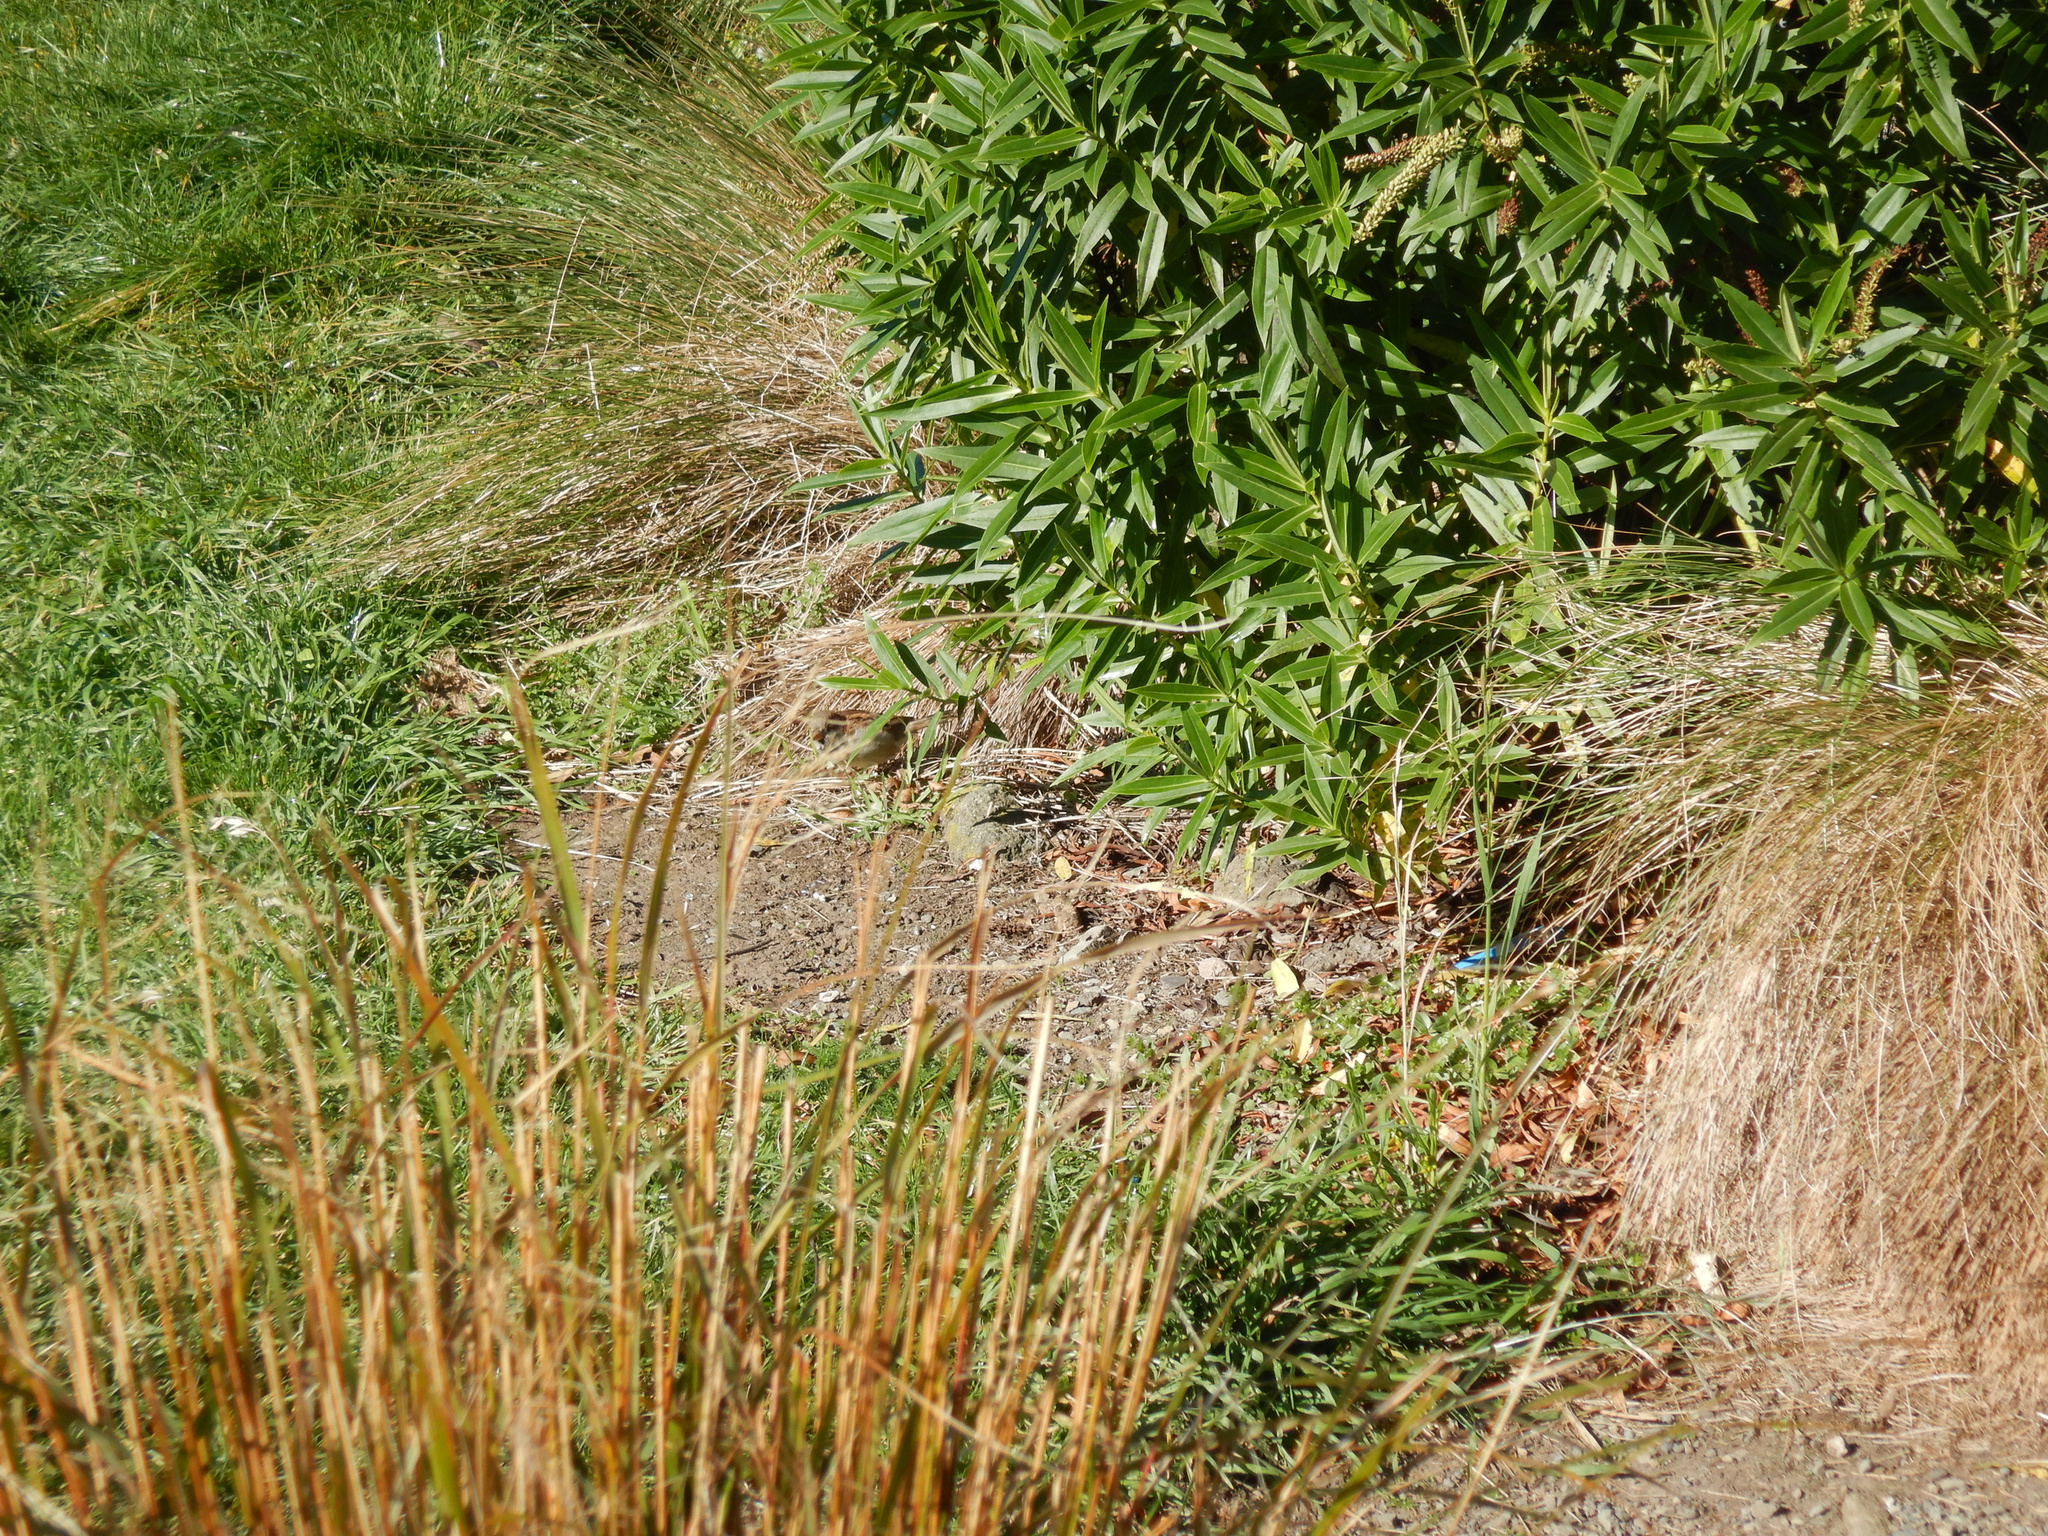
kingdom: Animalia
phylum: Chordata
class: Aves
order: Passeriformes
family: Passeridae
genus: Passer
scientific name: Passer domesticus
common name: House sparrow
